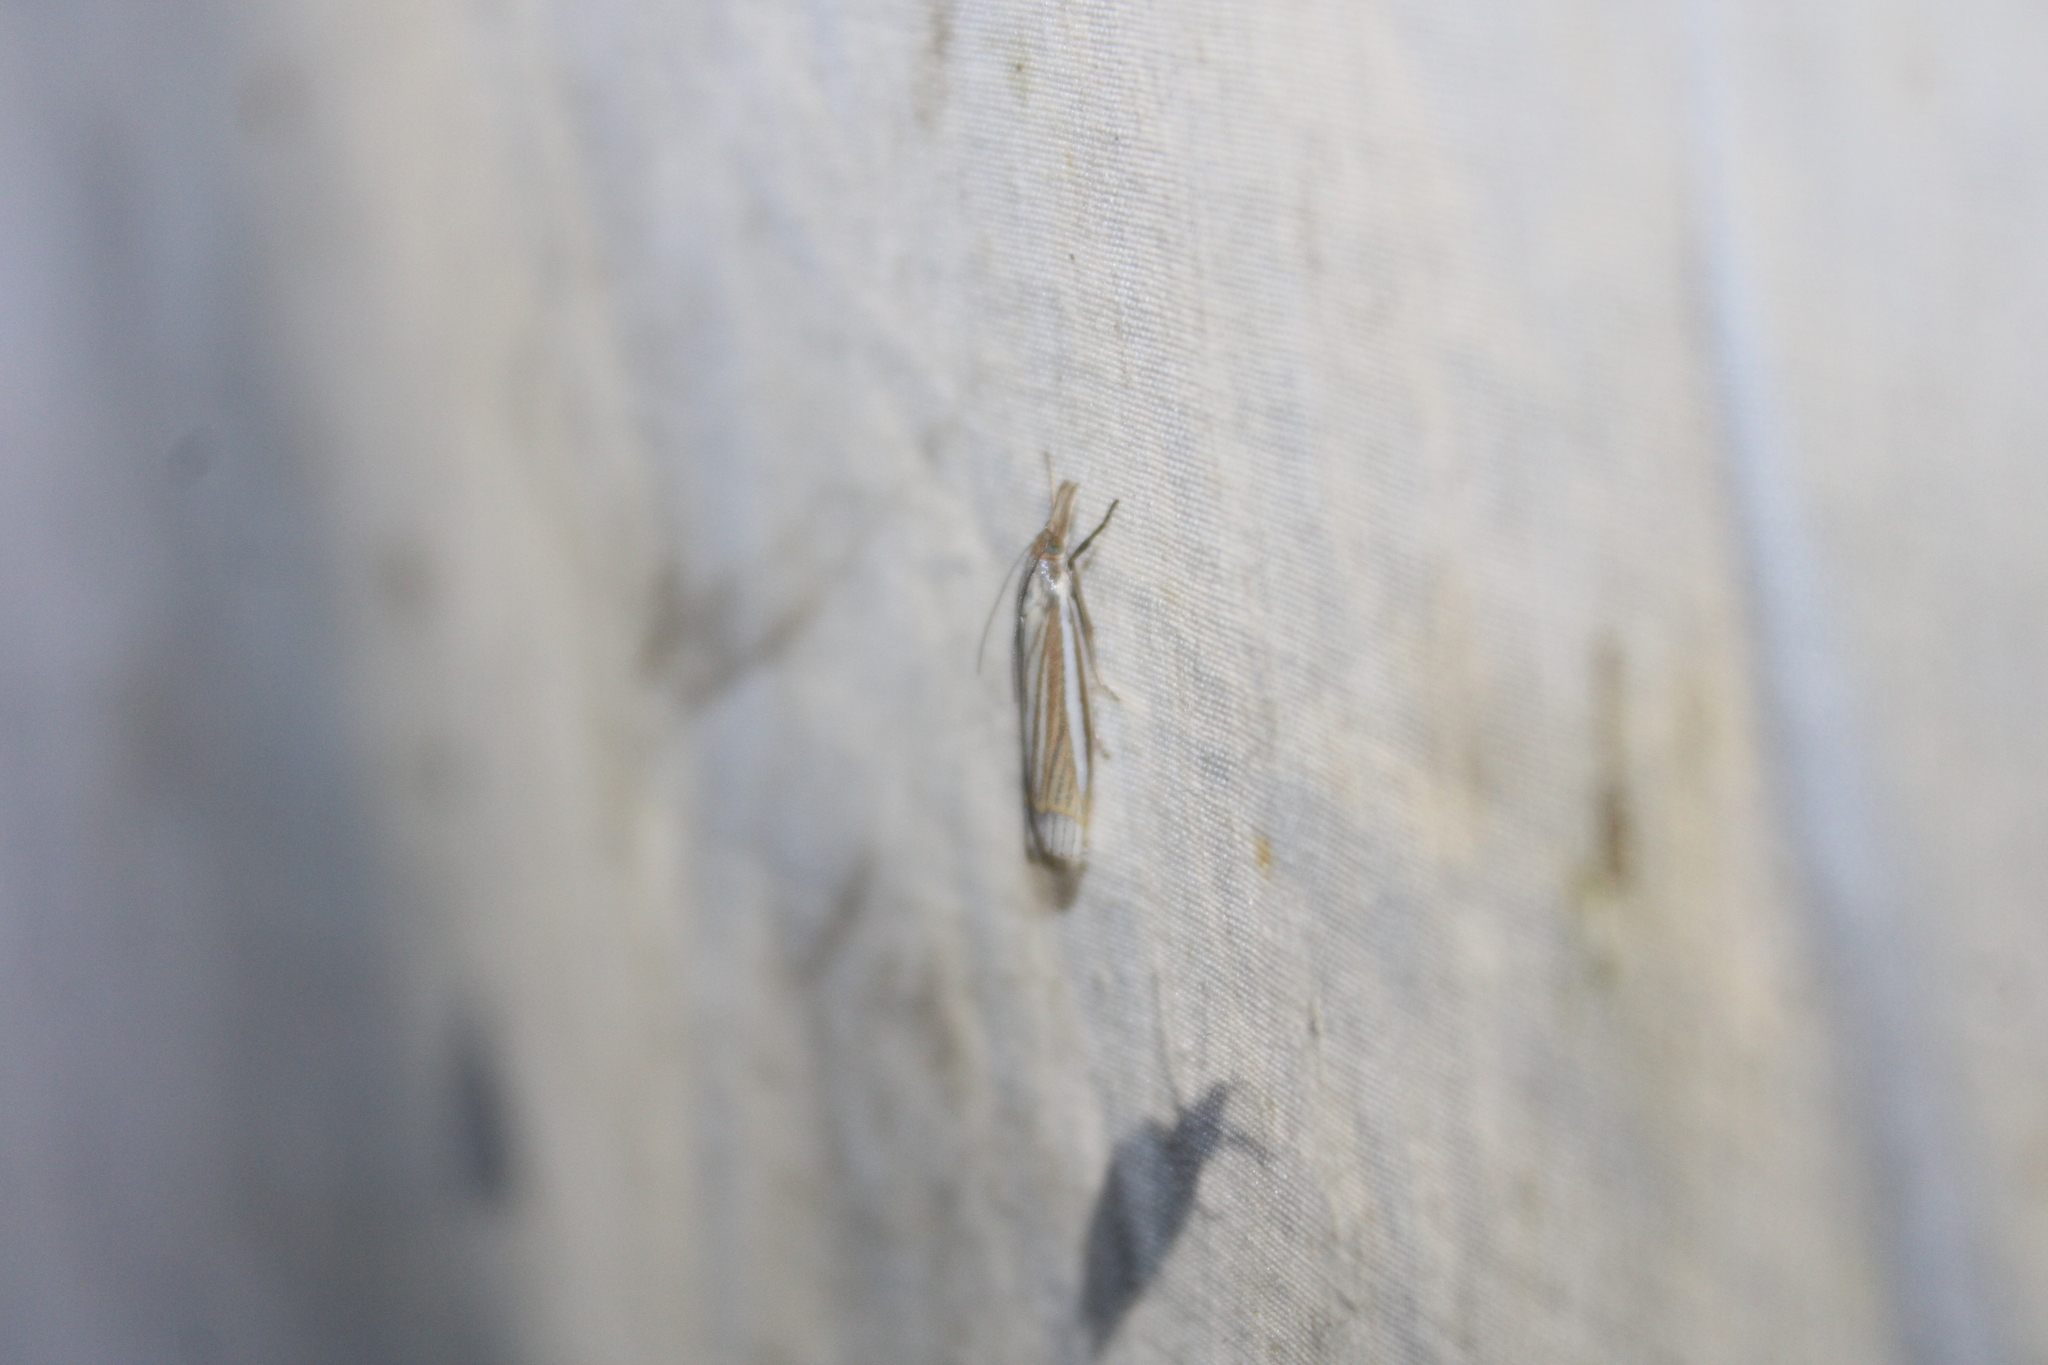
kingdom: Animalia
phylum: Arthropoda
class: Insecta
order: Lepidoptera
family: Crambidae
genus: Crambus
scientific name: Crambus laqueatellus
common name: Eastern grass-veneer
